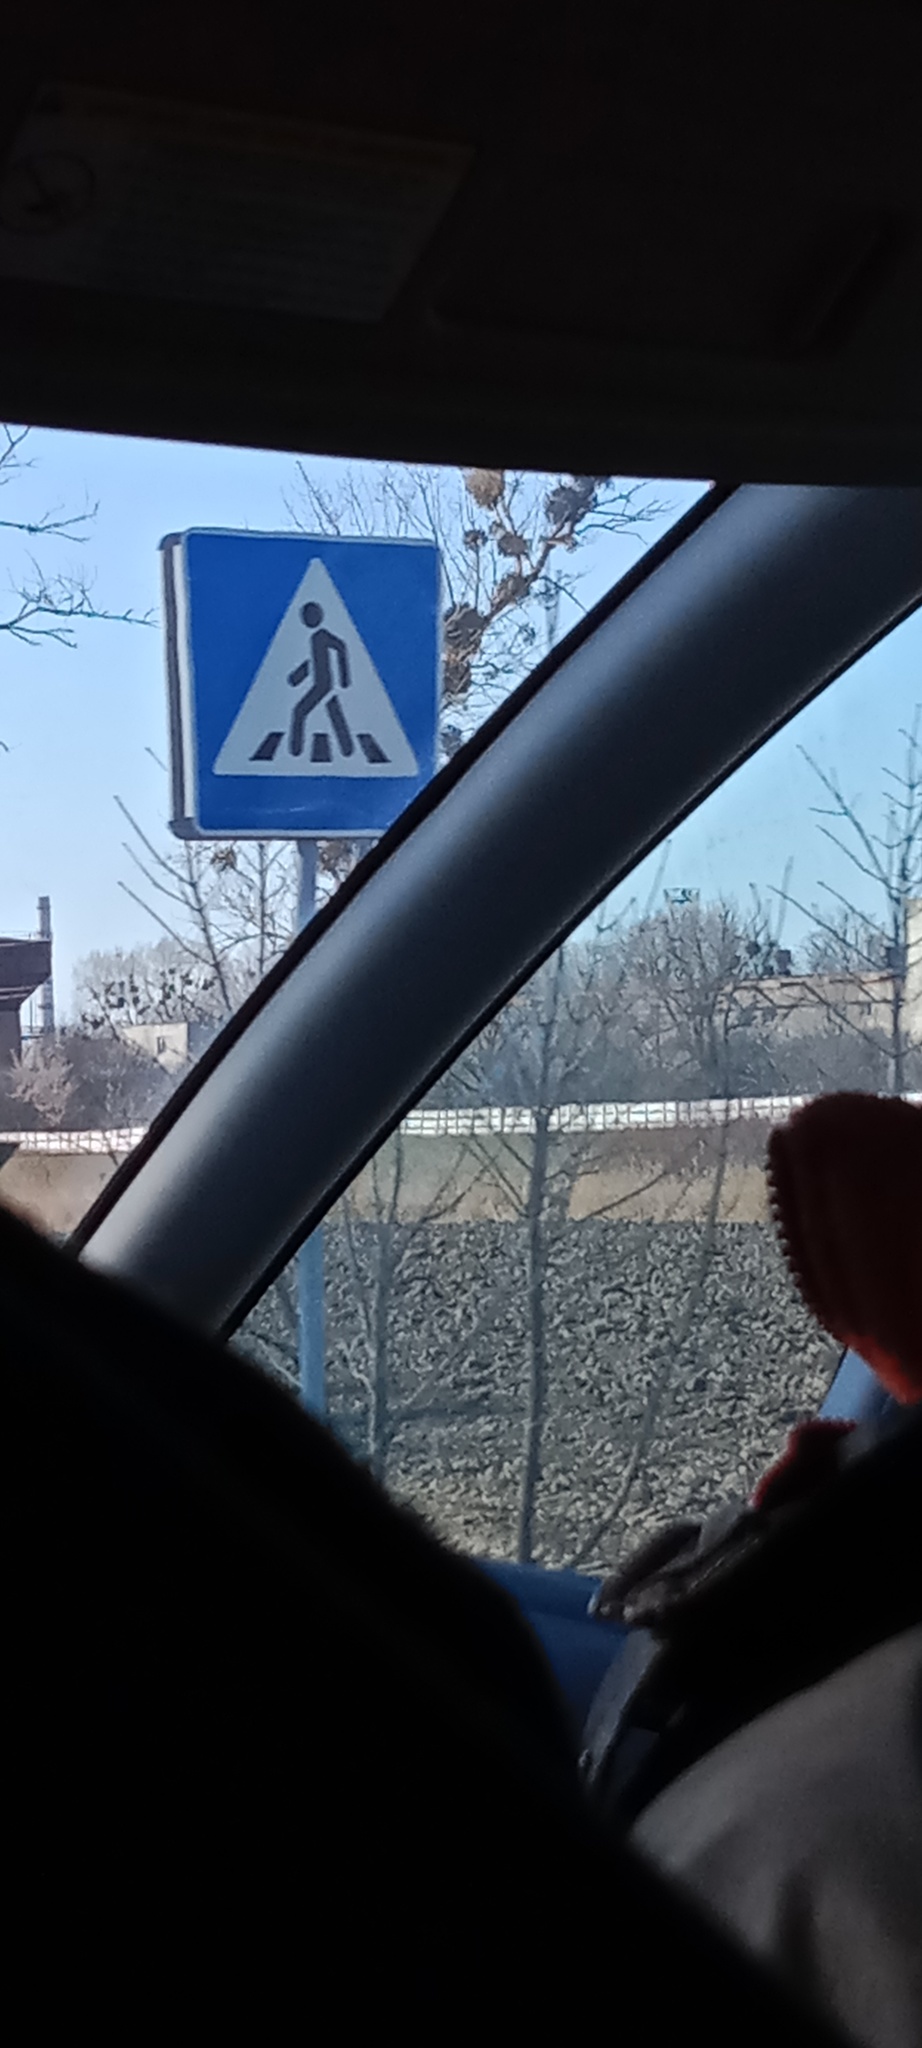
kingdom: Plantae
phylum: Tracheophyta
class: Magnoliopsida
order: Santalales
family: Viscaceae
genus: Viscum
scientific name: Viscum album
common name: Mistletoe
